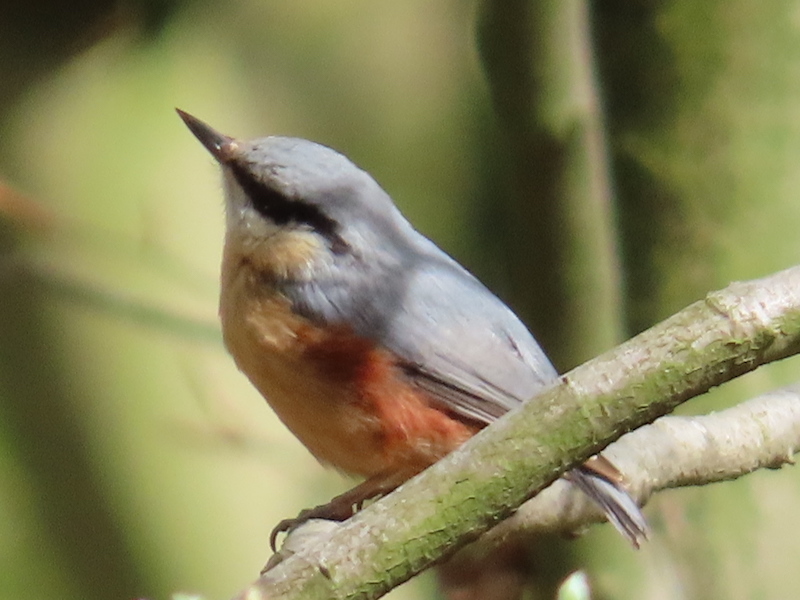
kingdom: Animalia
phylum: Chordata
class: Aves
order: Passeriformes
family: Sittidae
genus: Sitta
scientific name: Sitta europaea
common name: Eurasian nuthatch
